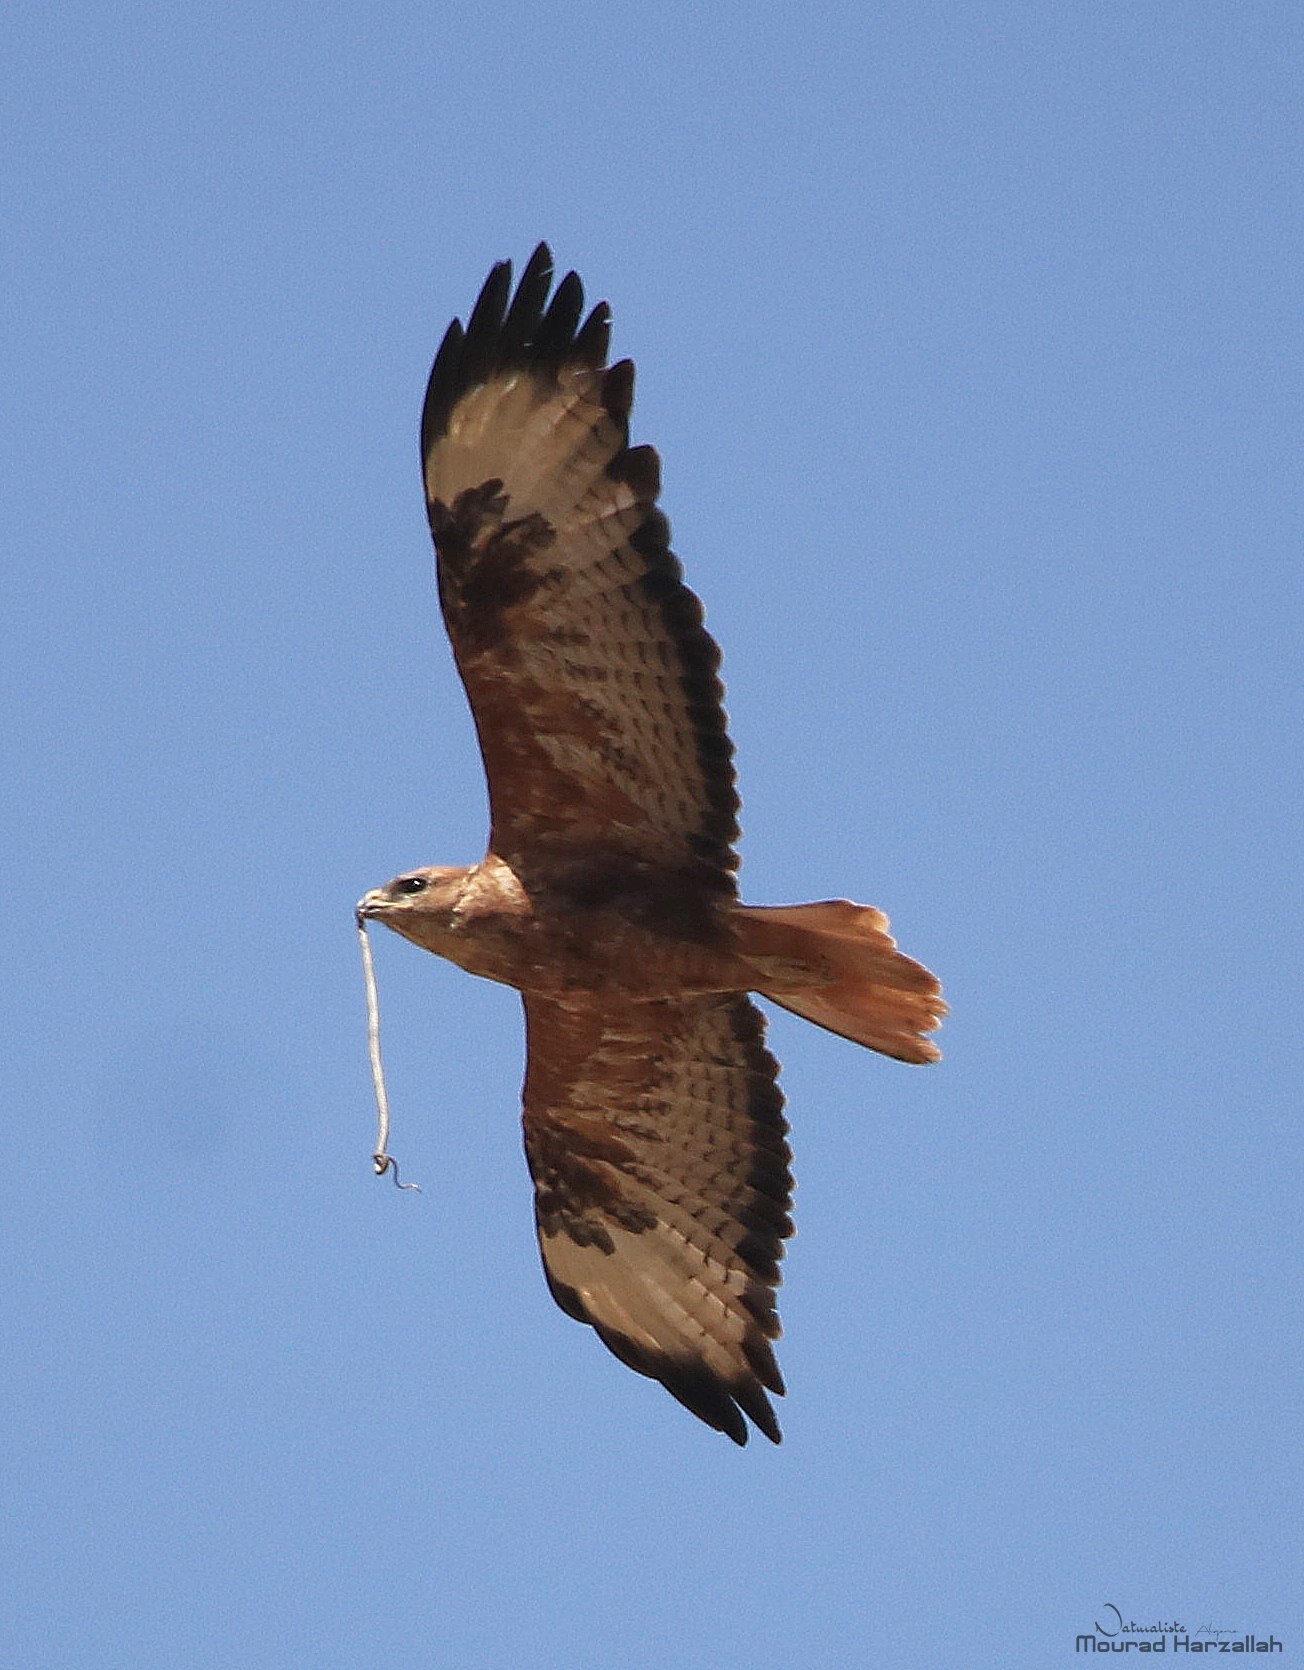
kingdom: Animalia
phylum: Chordata
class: Aves
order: Accipitriformes
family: Accipitridae
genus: Buteo
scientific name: Buteo rufinus
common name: Long-legged buzzard
